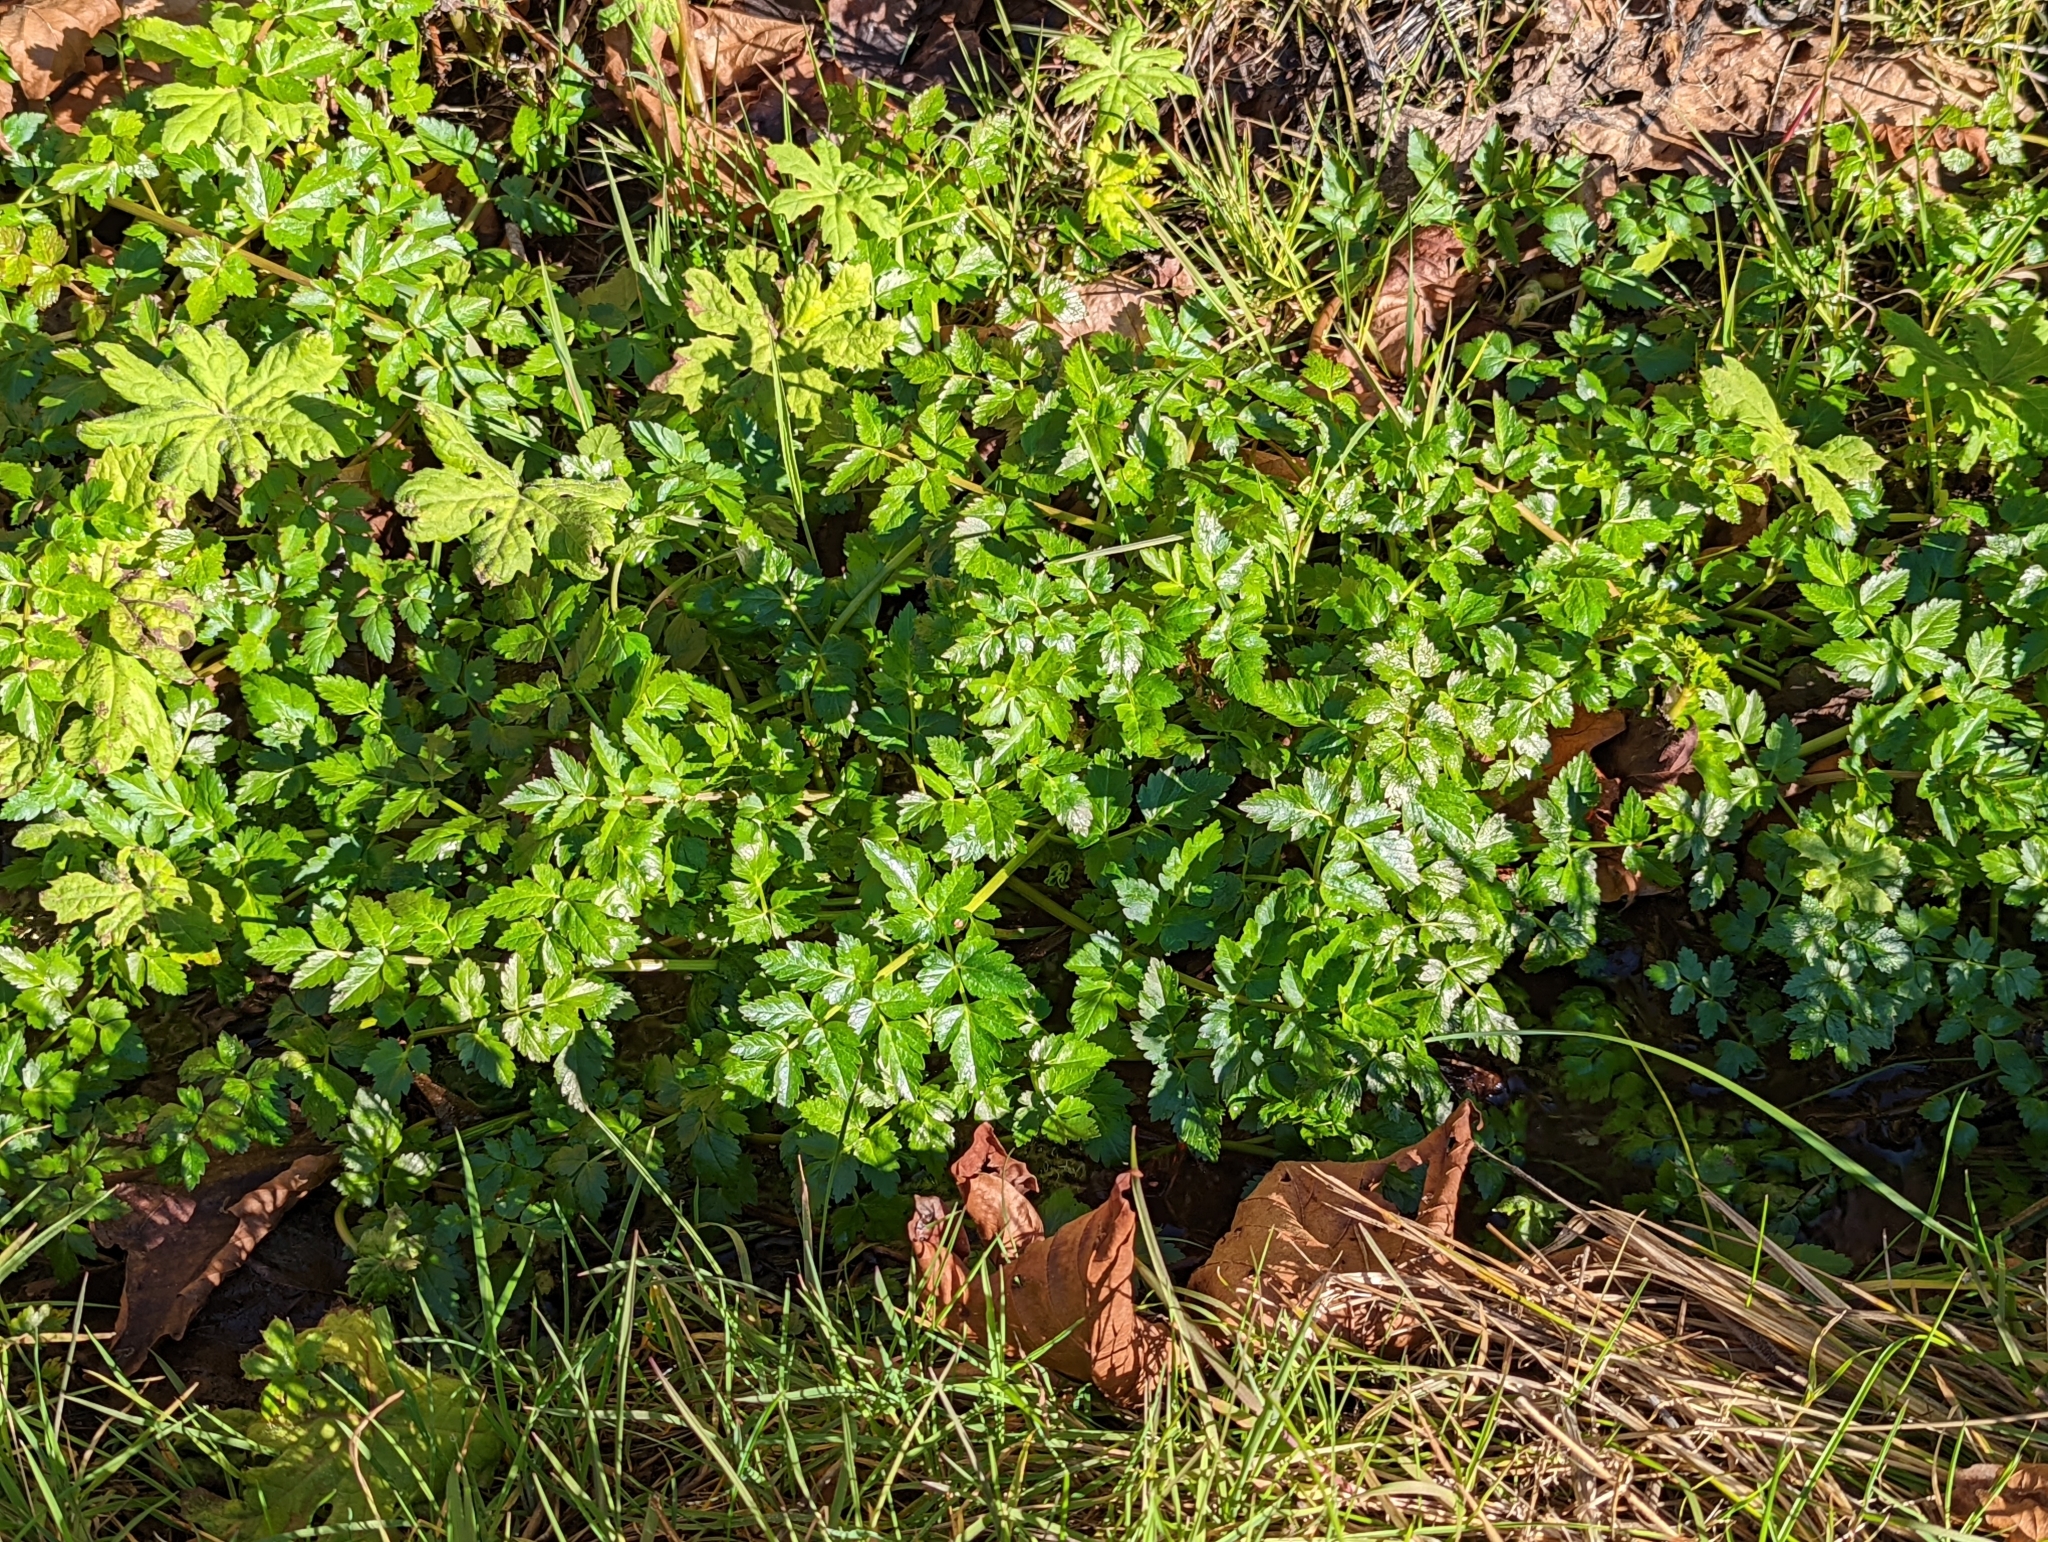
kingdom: Plantae
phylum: Tracheophyta
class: Magnoliopsida
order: Apiales
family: Apiaceae
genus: Oenanthe
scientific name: Oenanthe sarmentosa
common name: American water-parsley
